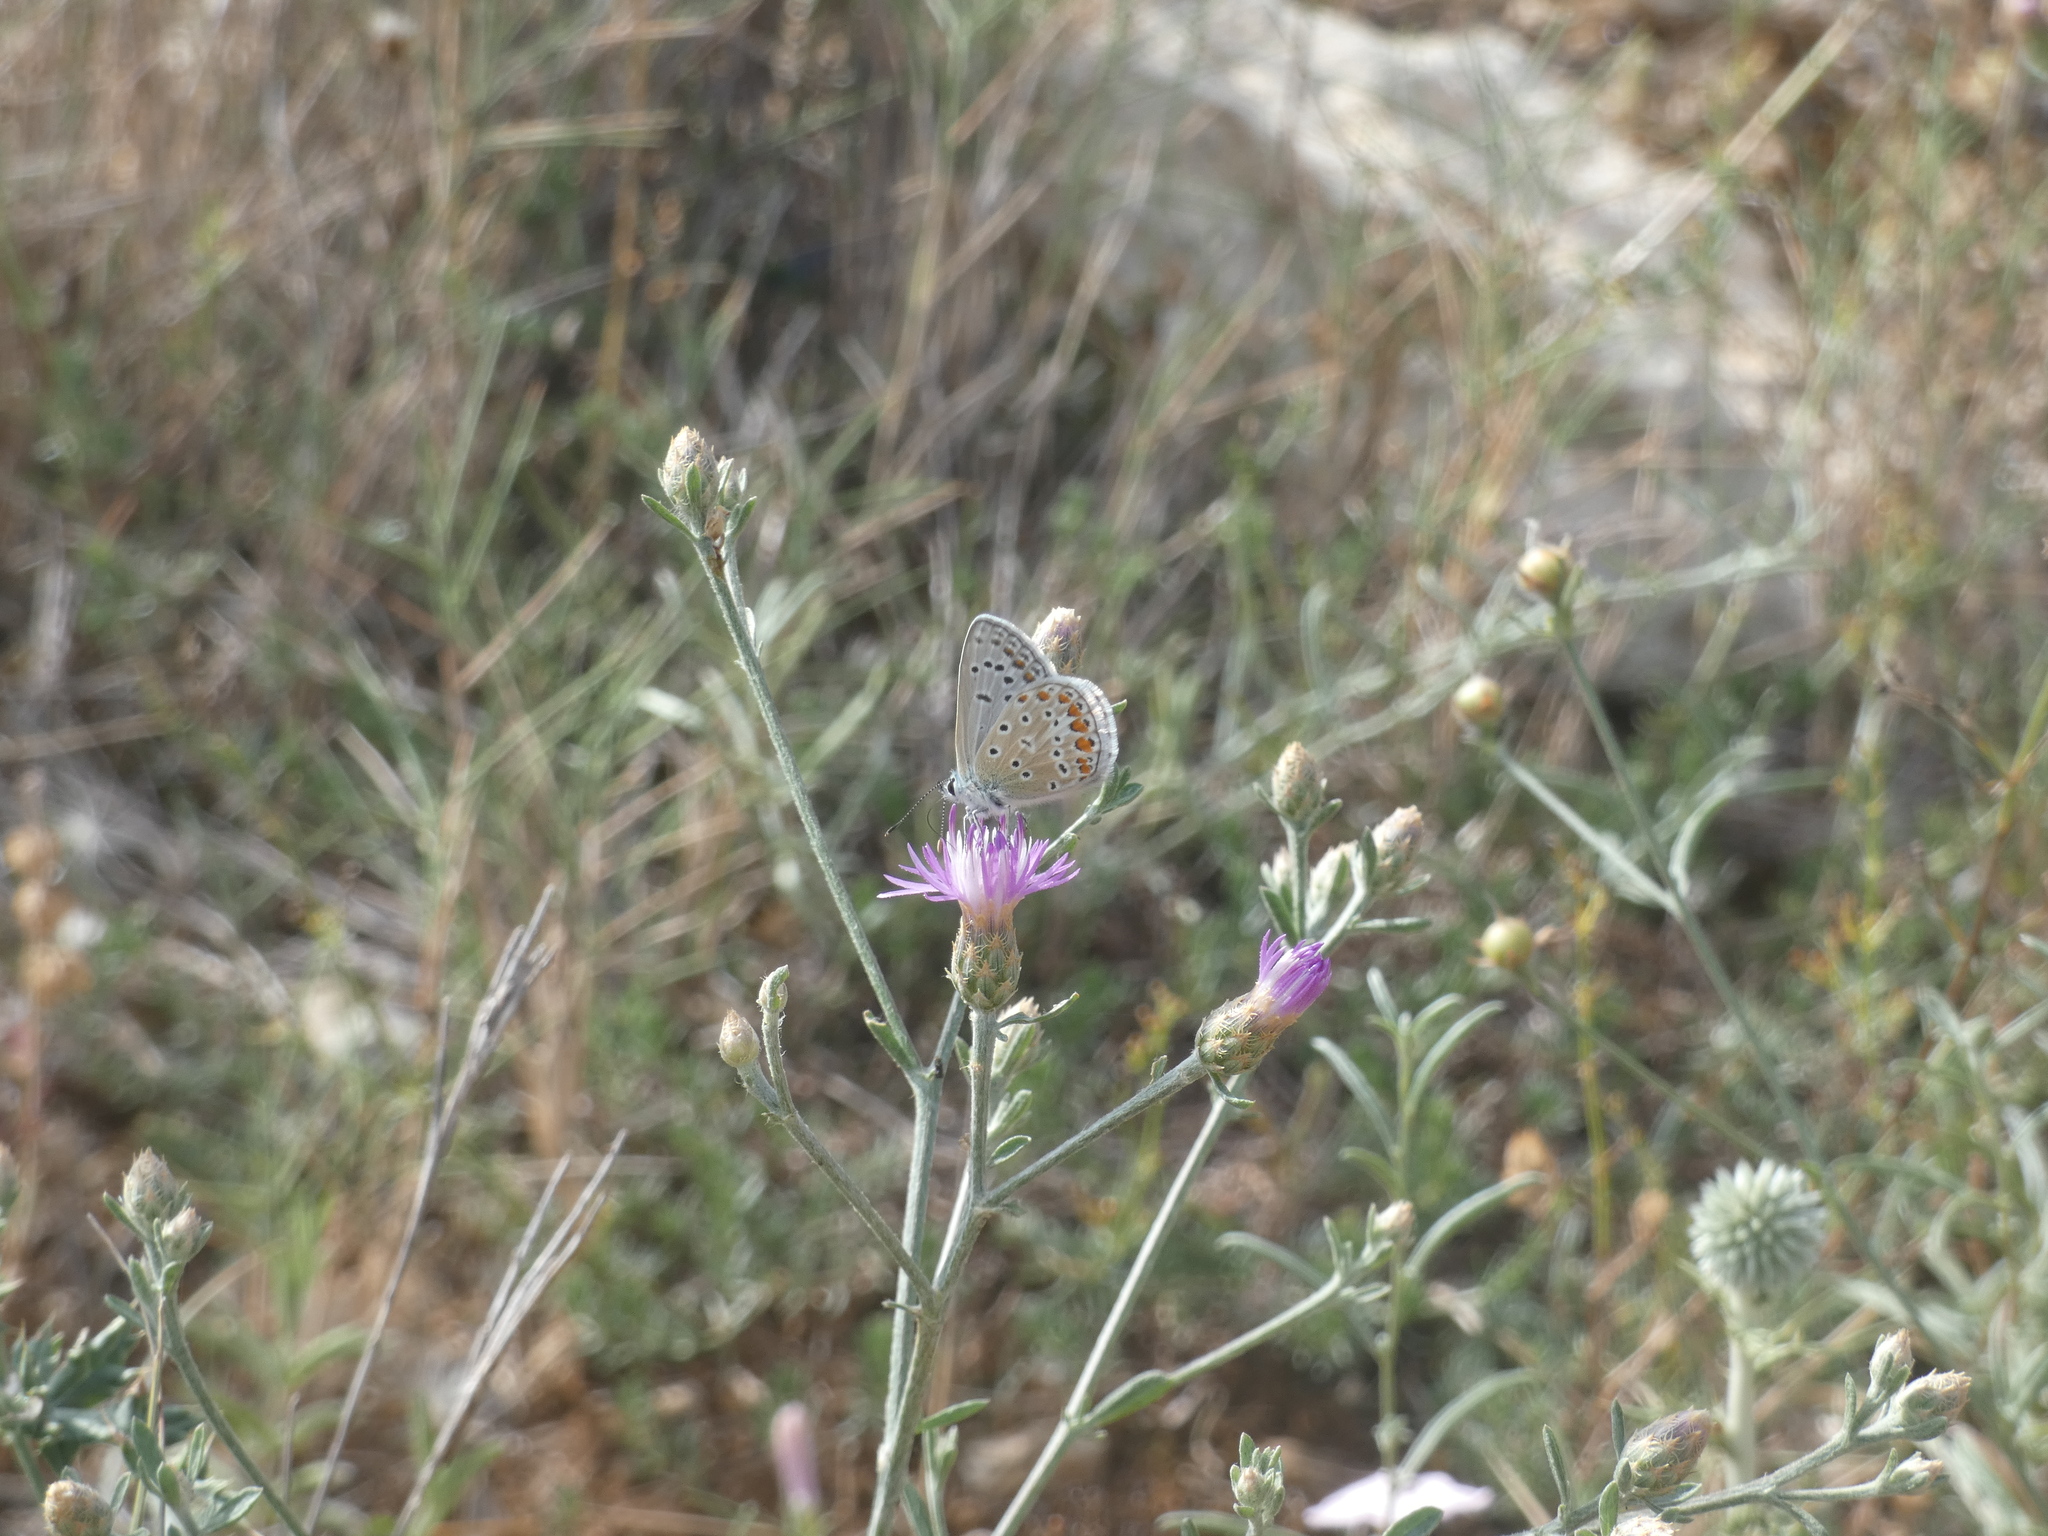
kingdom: Animalia
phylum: Arthropoda
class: Insecta
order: Lepidoptera
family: Lycaenidae
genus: Polyommatus
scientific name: Polyommatus icarus
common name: Common blue
